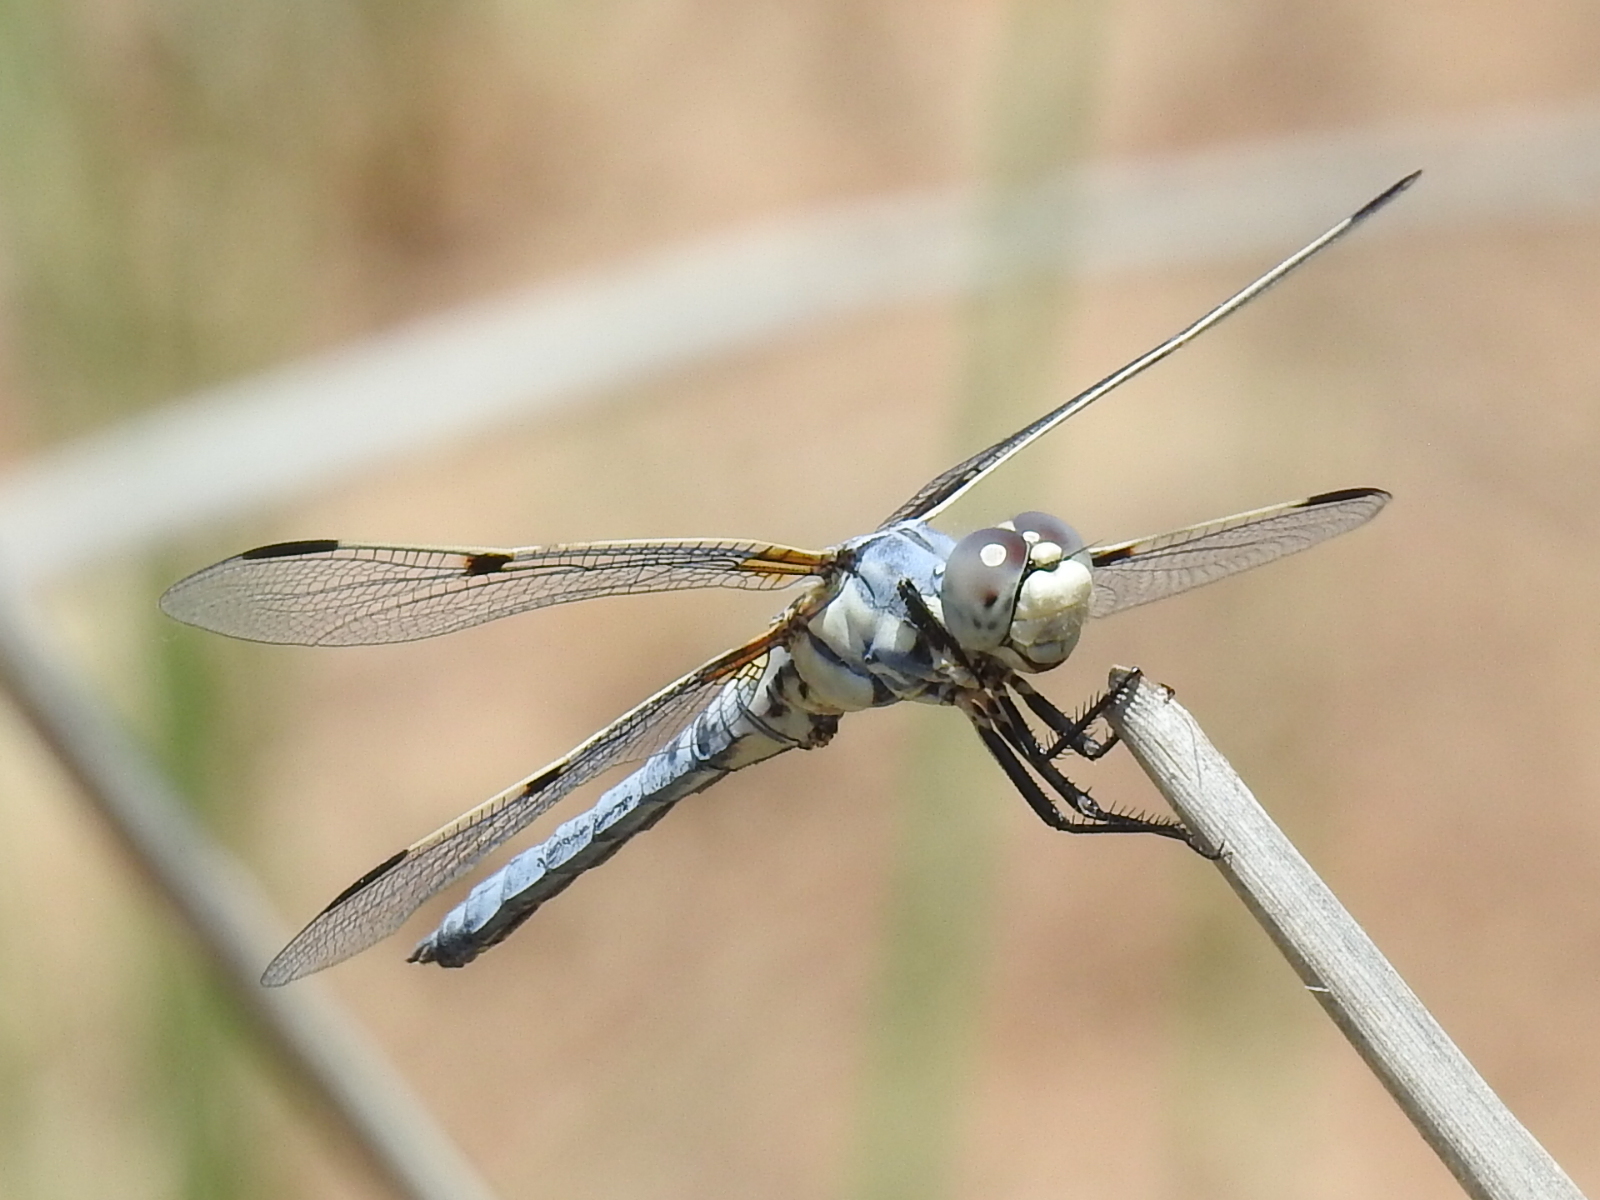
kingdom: Animalia
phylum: Arthropoda
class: Insecta
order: Odonata
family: Libellulidae
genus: Libellula
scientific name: Libellula composita
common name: Bleached skimmer
